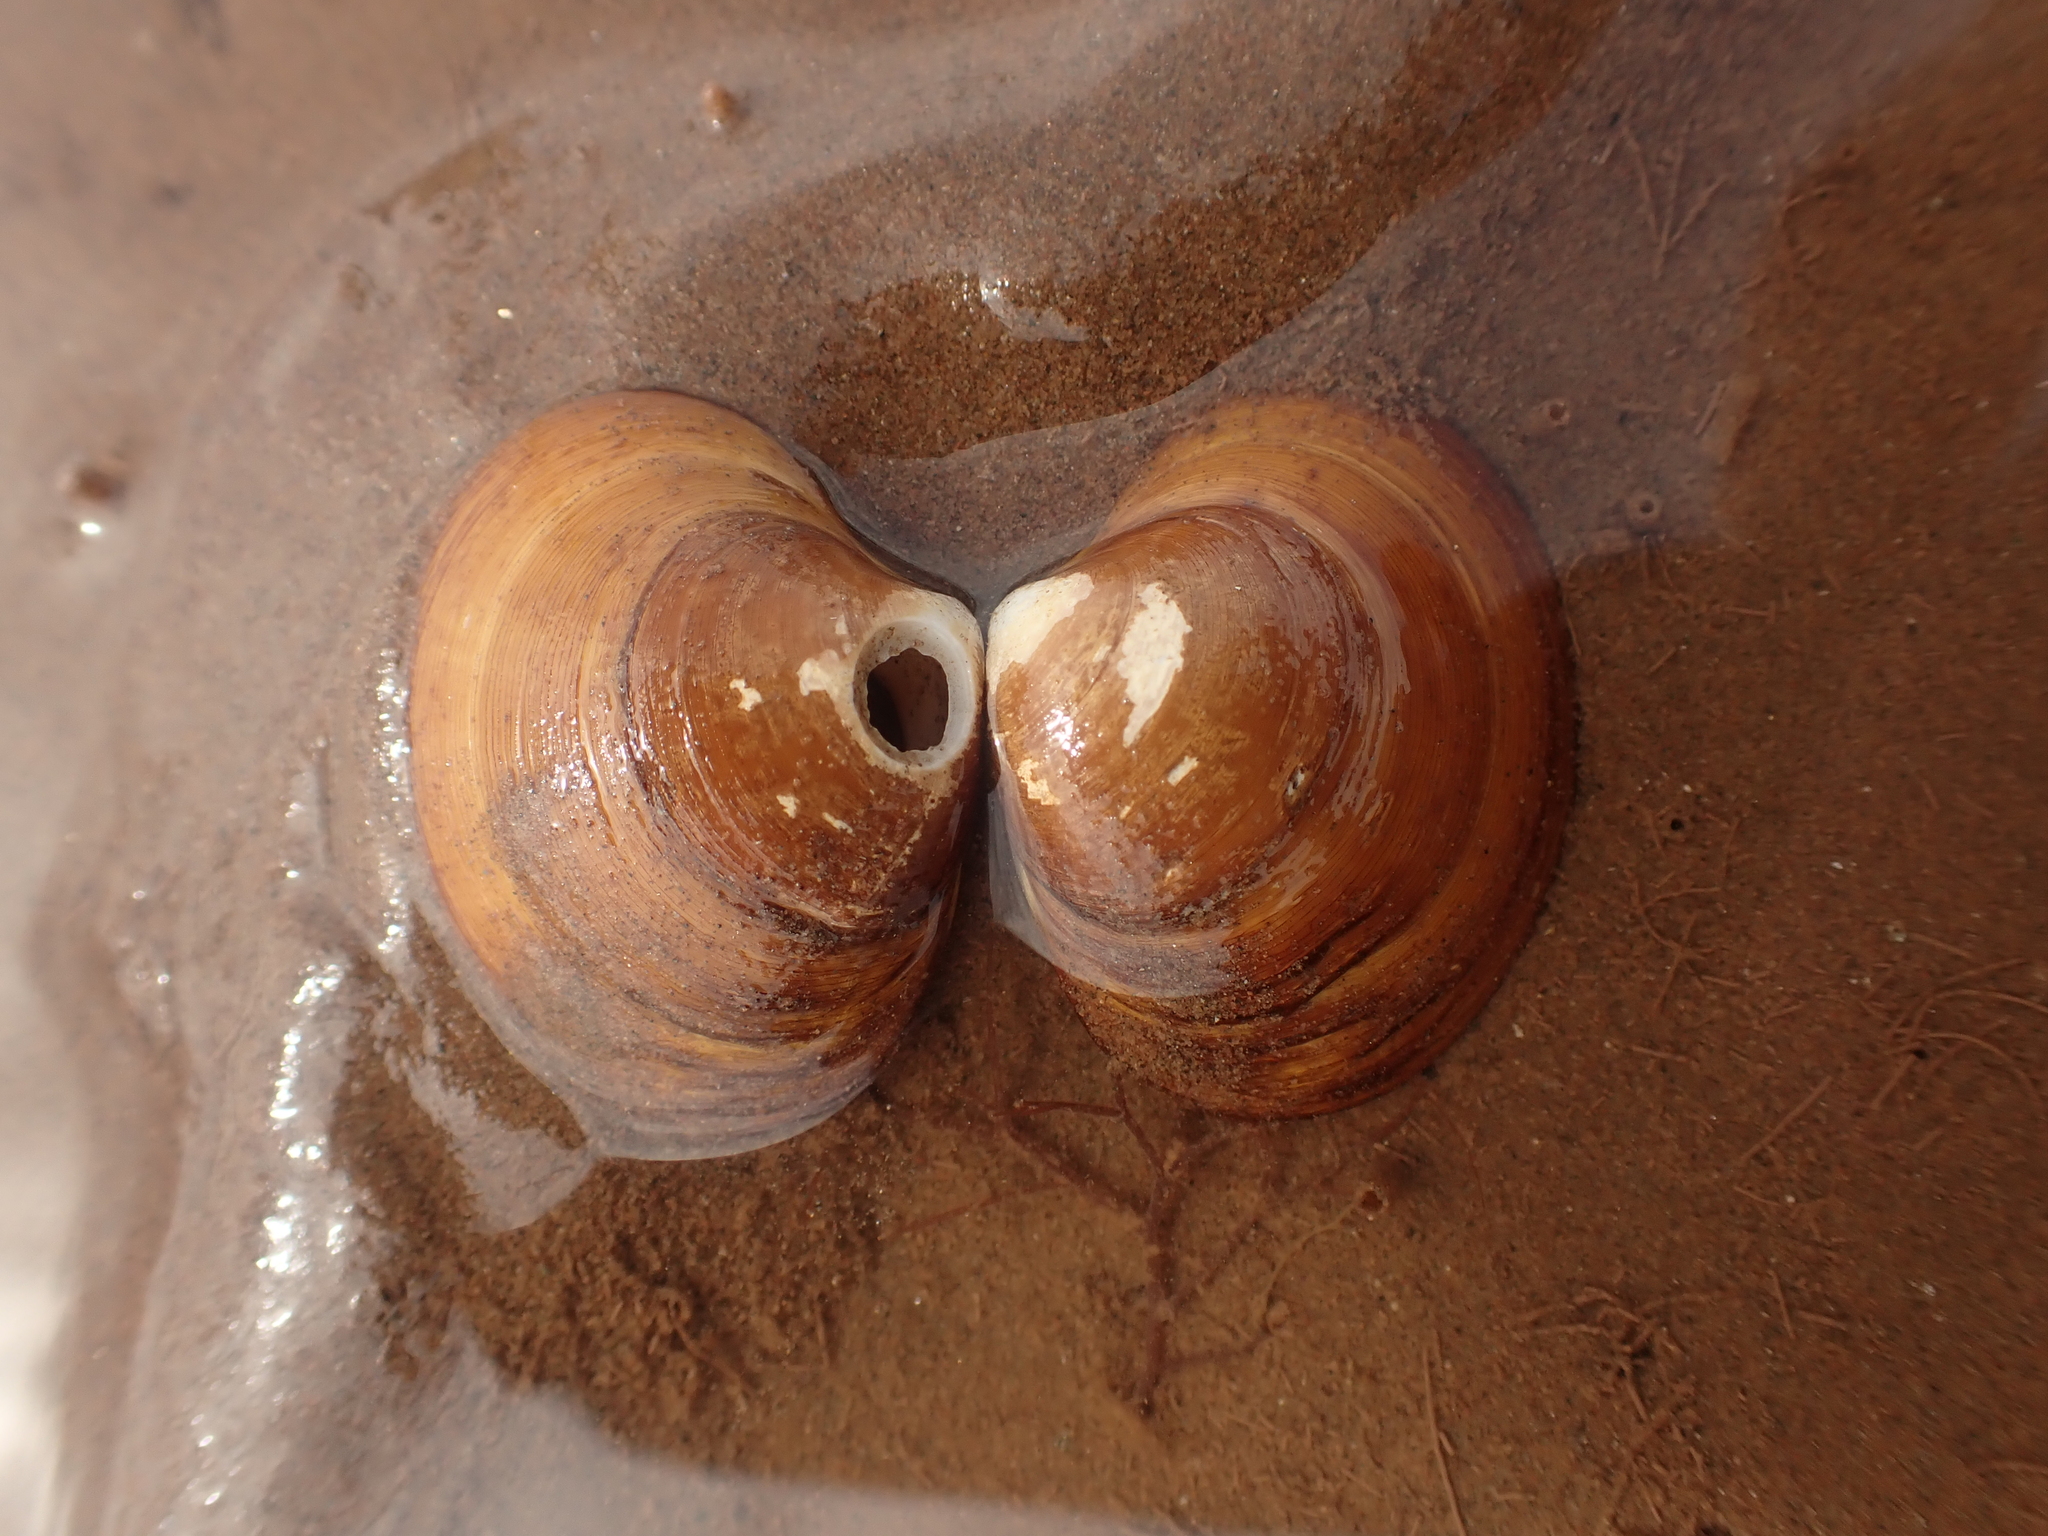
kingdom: Animalia
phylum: Mollusca
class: Bivalvia
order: Venerida
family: Arcticidae
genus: Arctica
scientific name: Arctica islandica
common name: Icelandic cyprine
